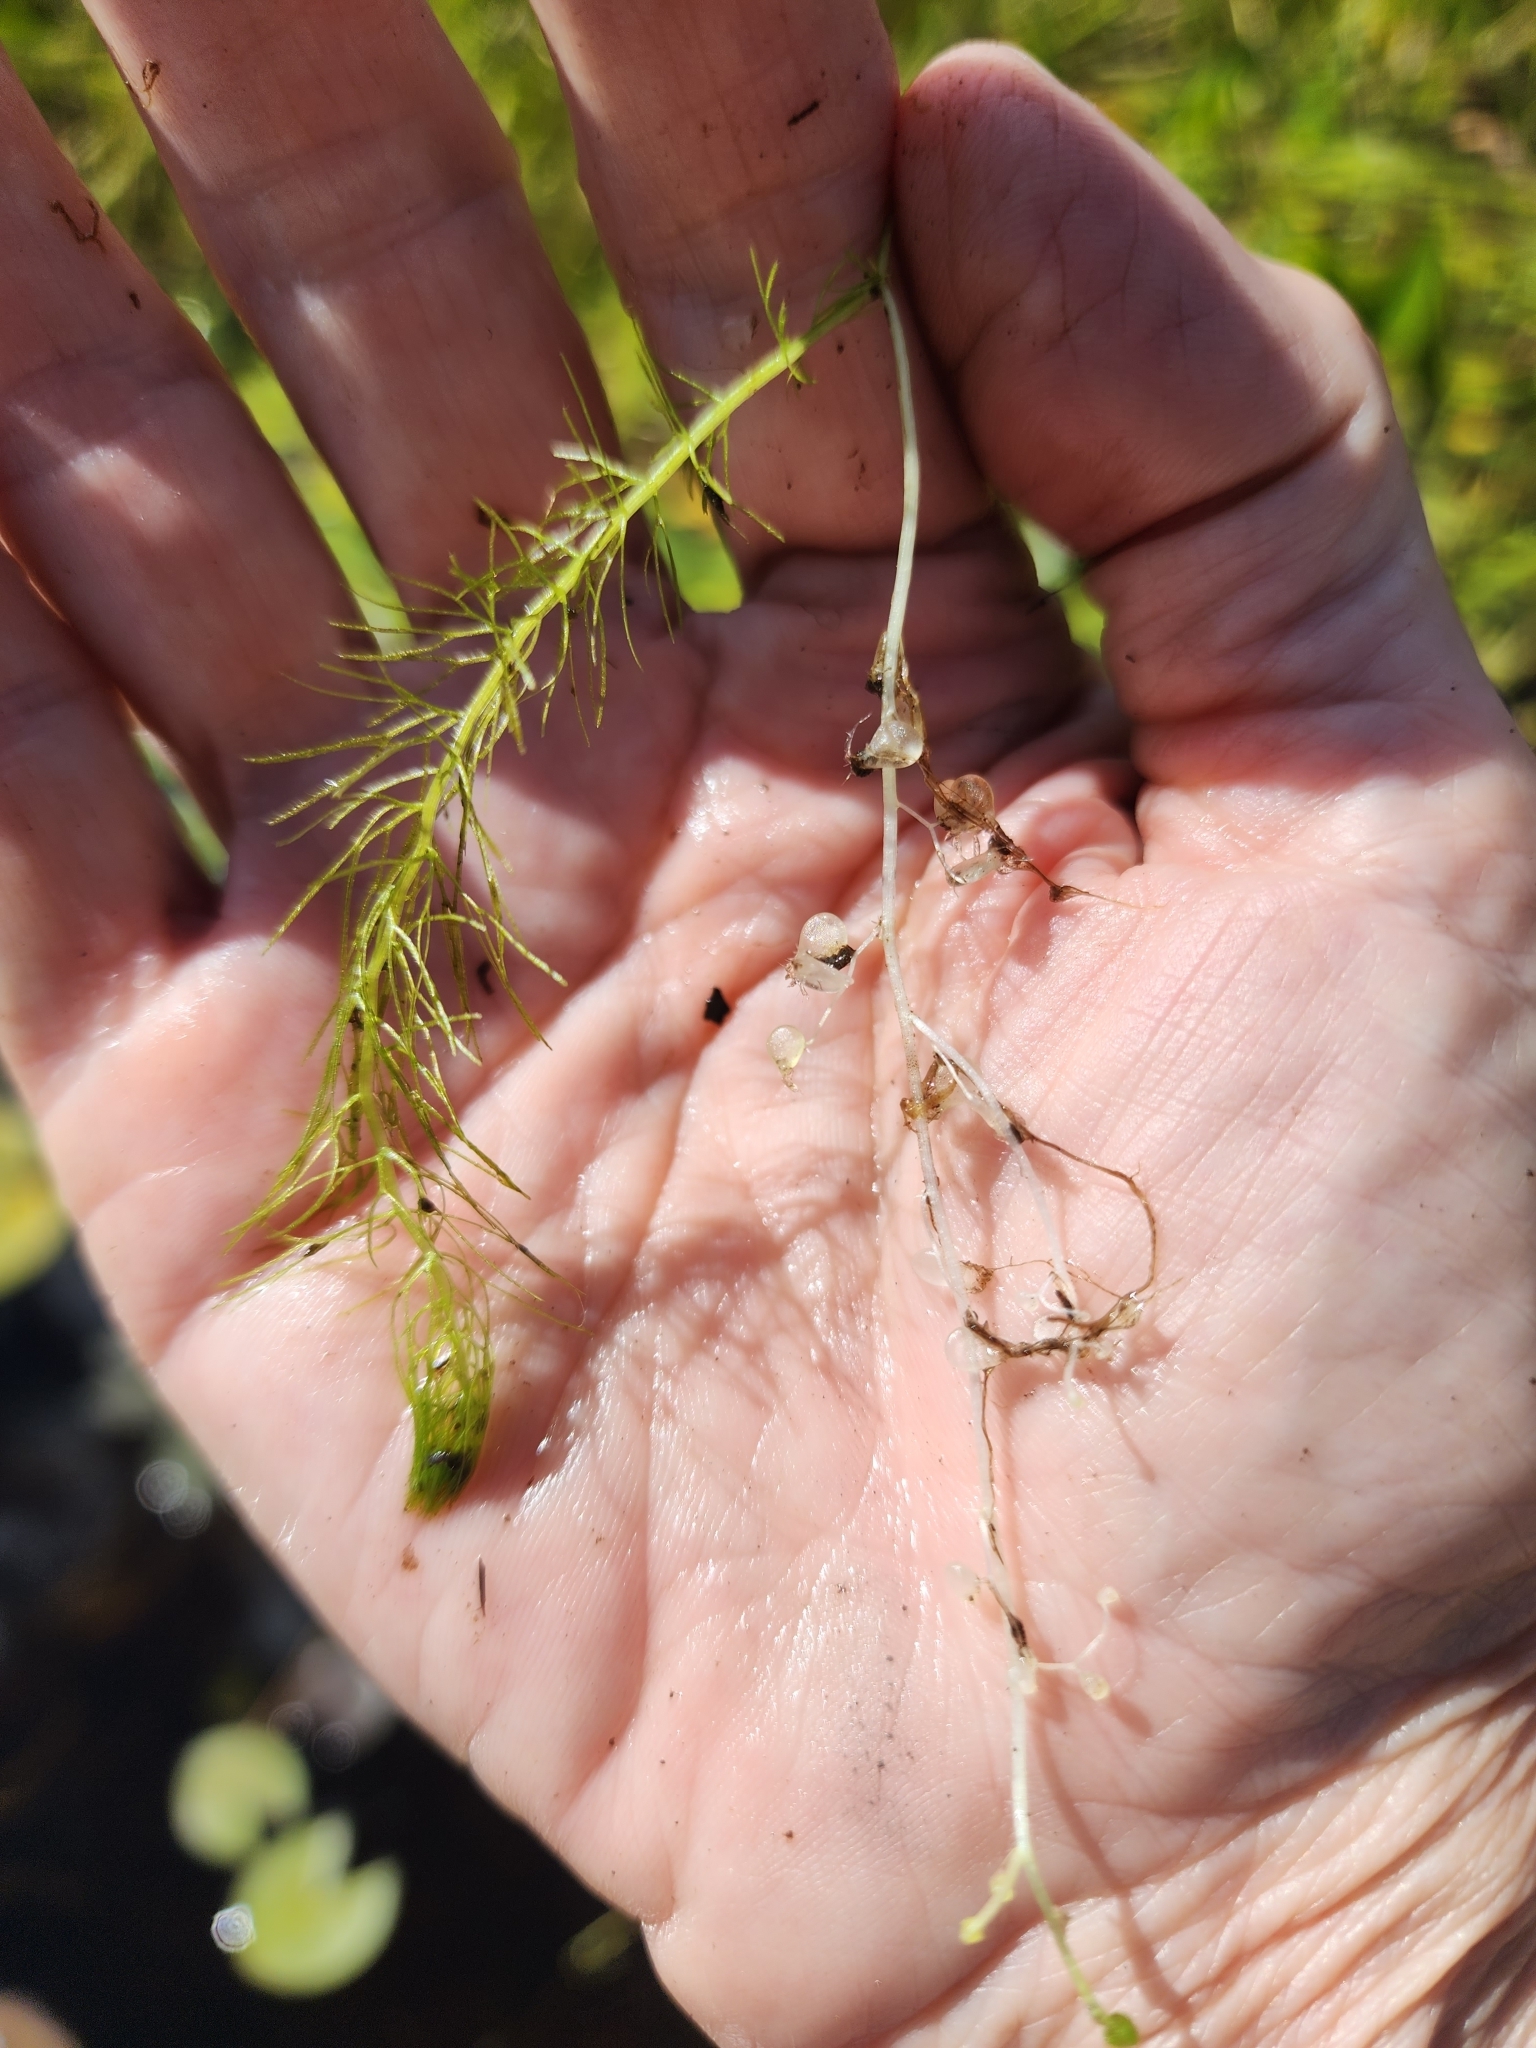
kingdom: Plantae
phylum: Tracheophyta
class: Magnoliopsida
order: Lamiales
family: Lentibulariaceae
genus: Utricularia
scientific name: Utricularia intermedia
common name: Intermediate bladderwort
